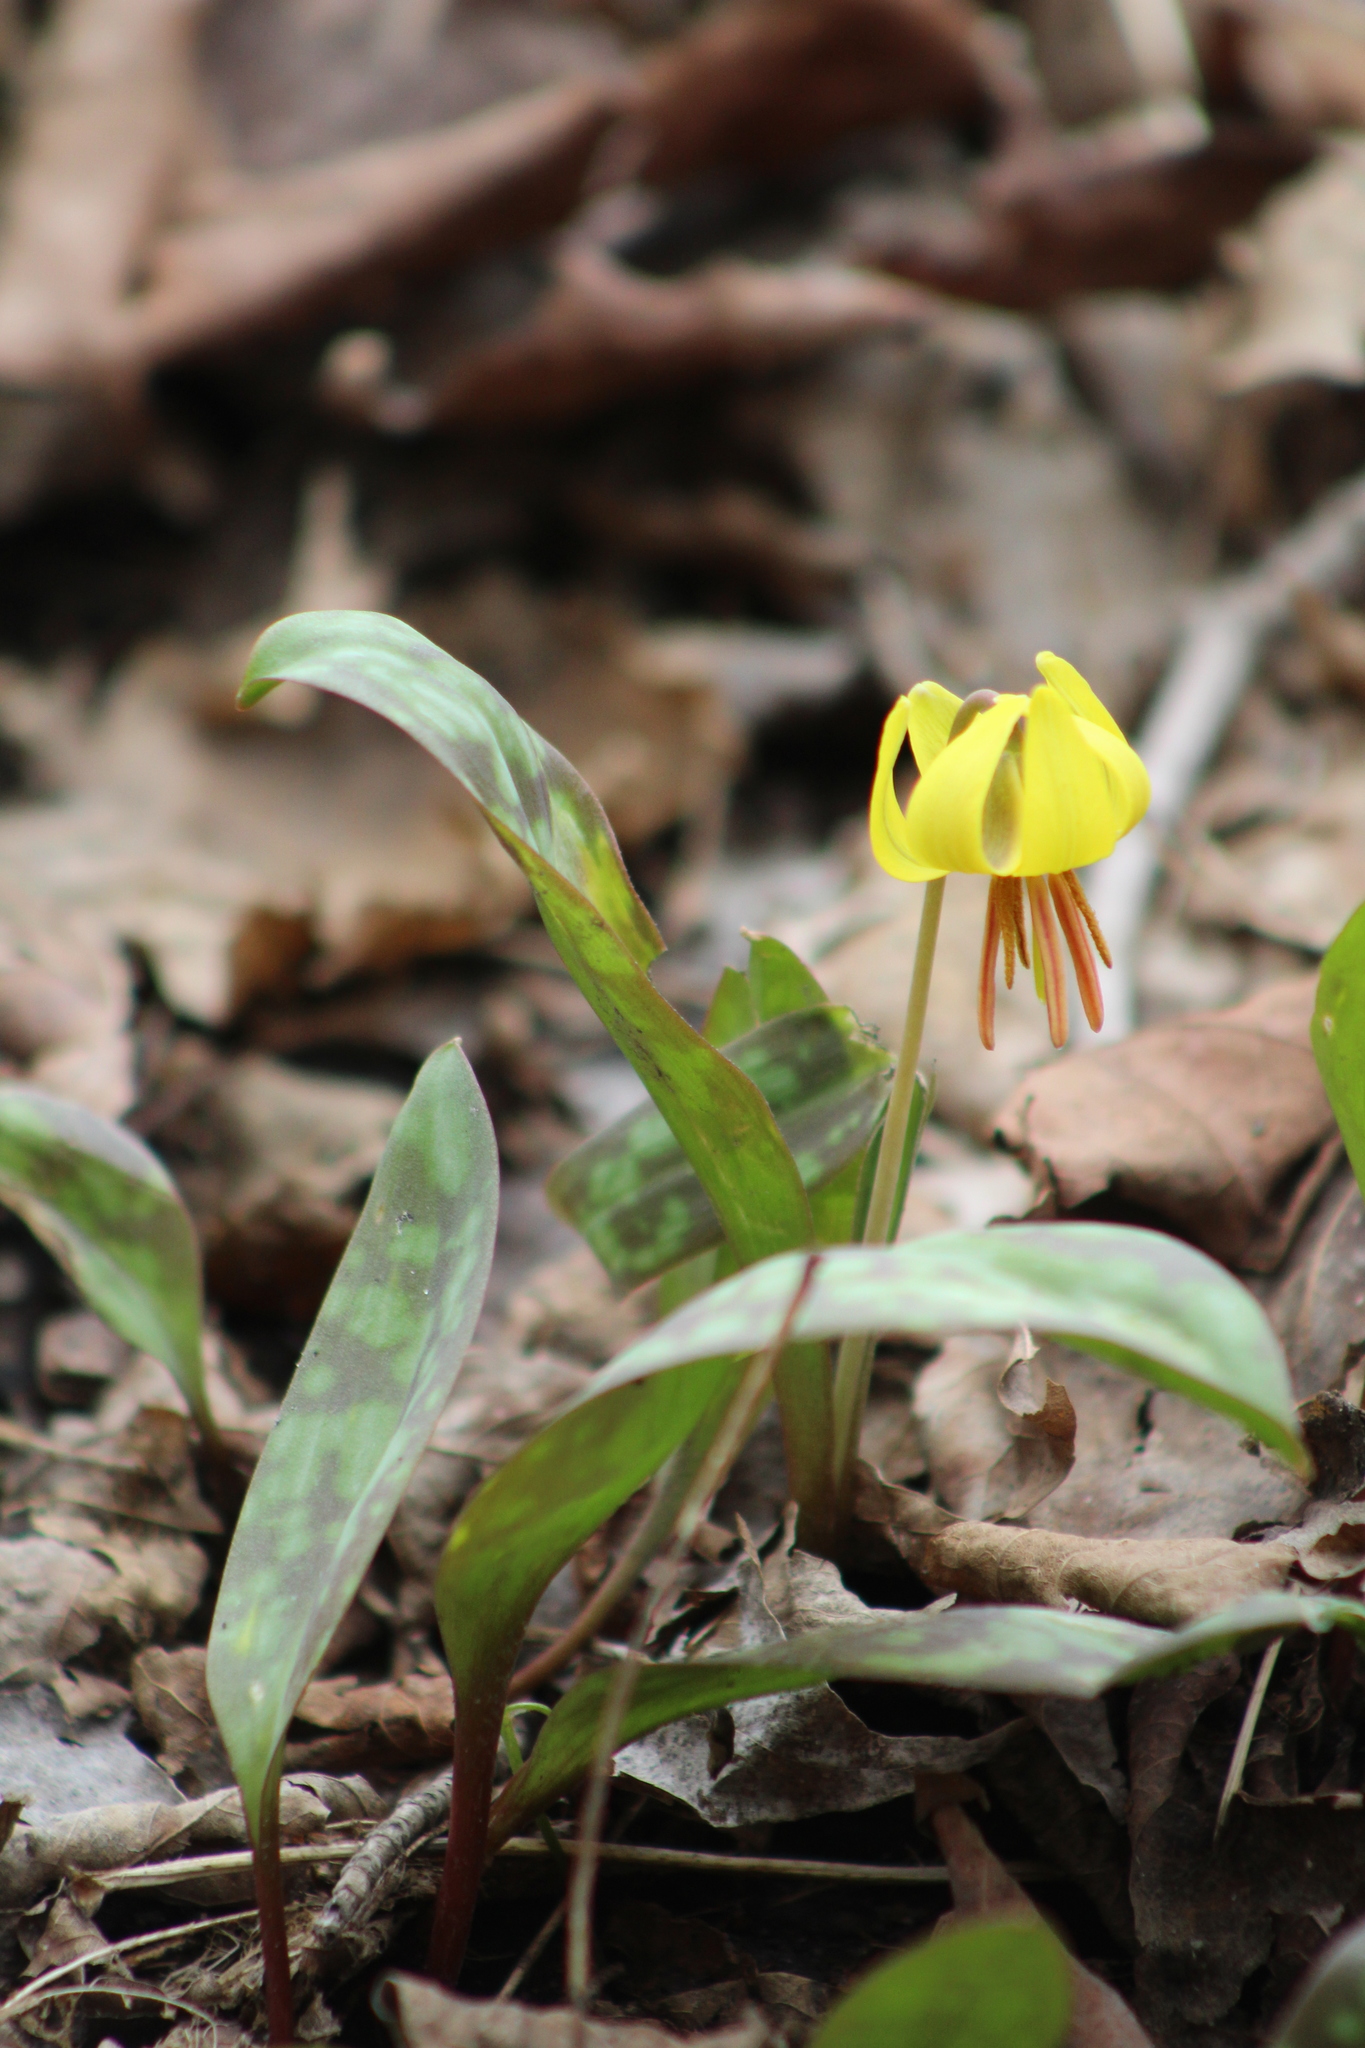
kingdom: Plantae
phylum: Tracheophyta
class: Liliopsida
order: Liliales
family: Liliaceae
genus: Erythronium
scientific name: Erythronium americanum
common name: Yellow adder's-tongue
